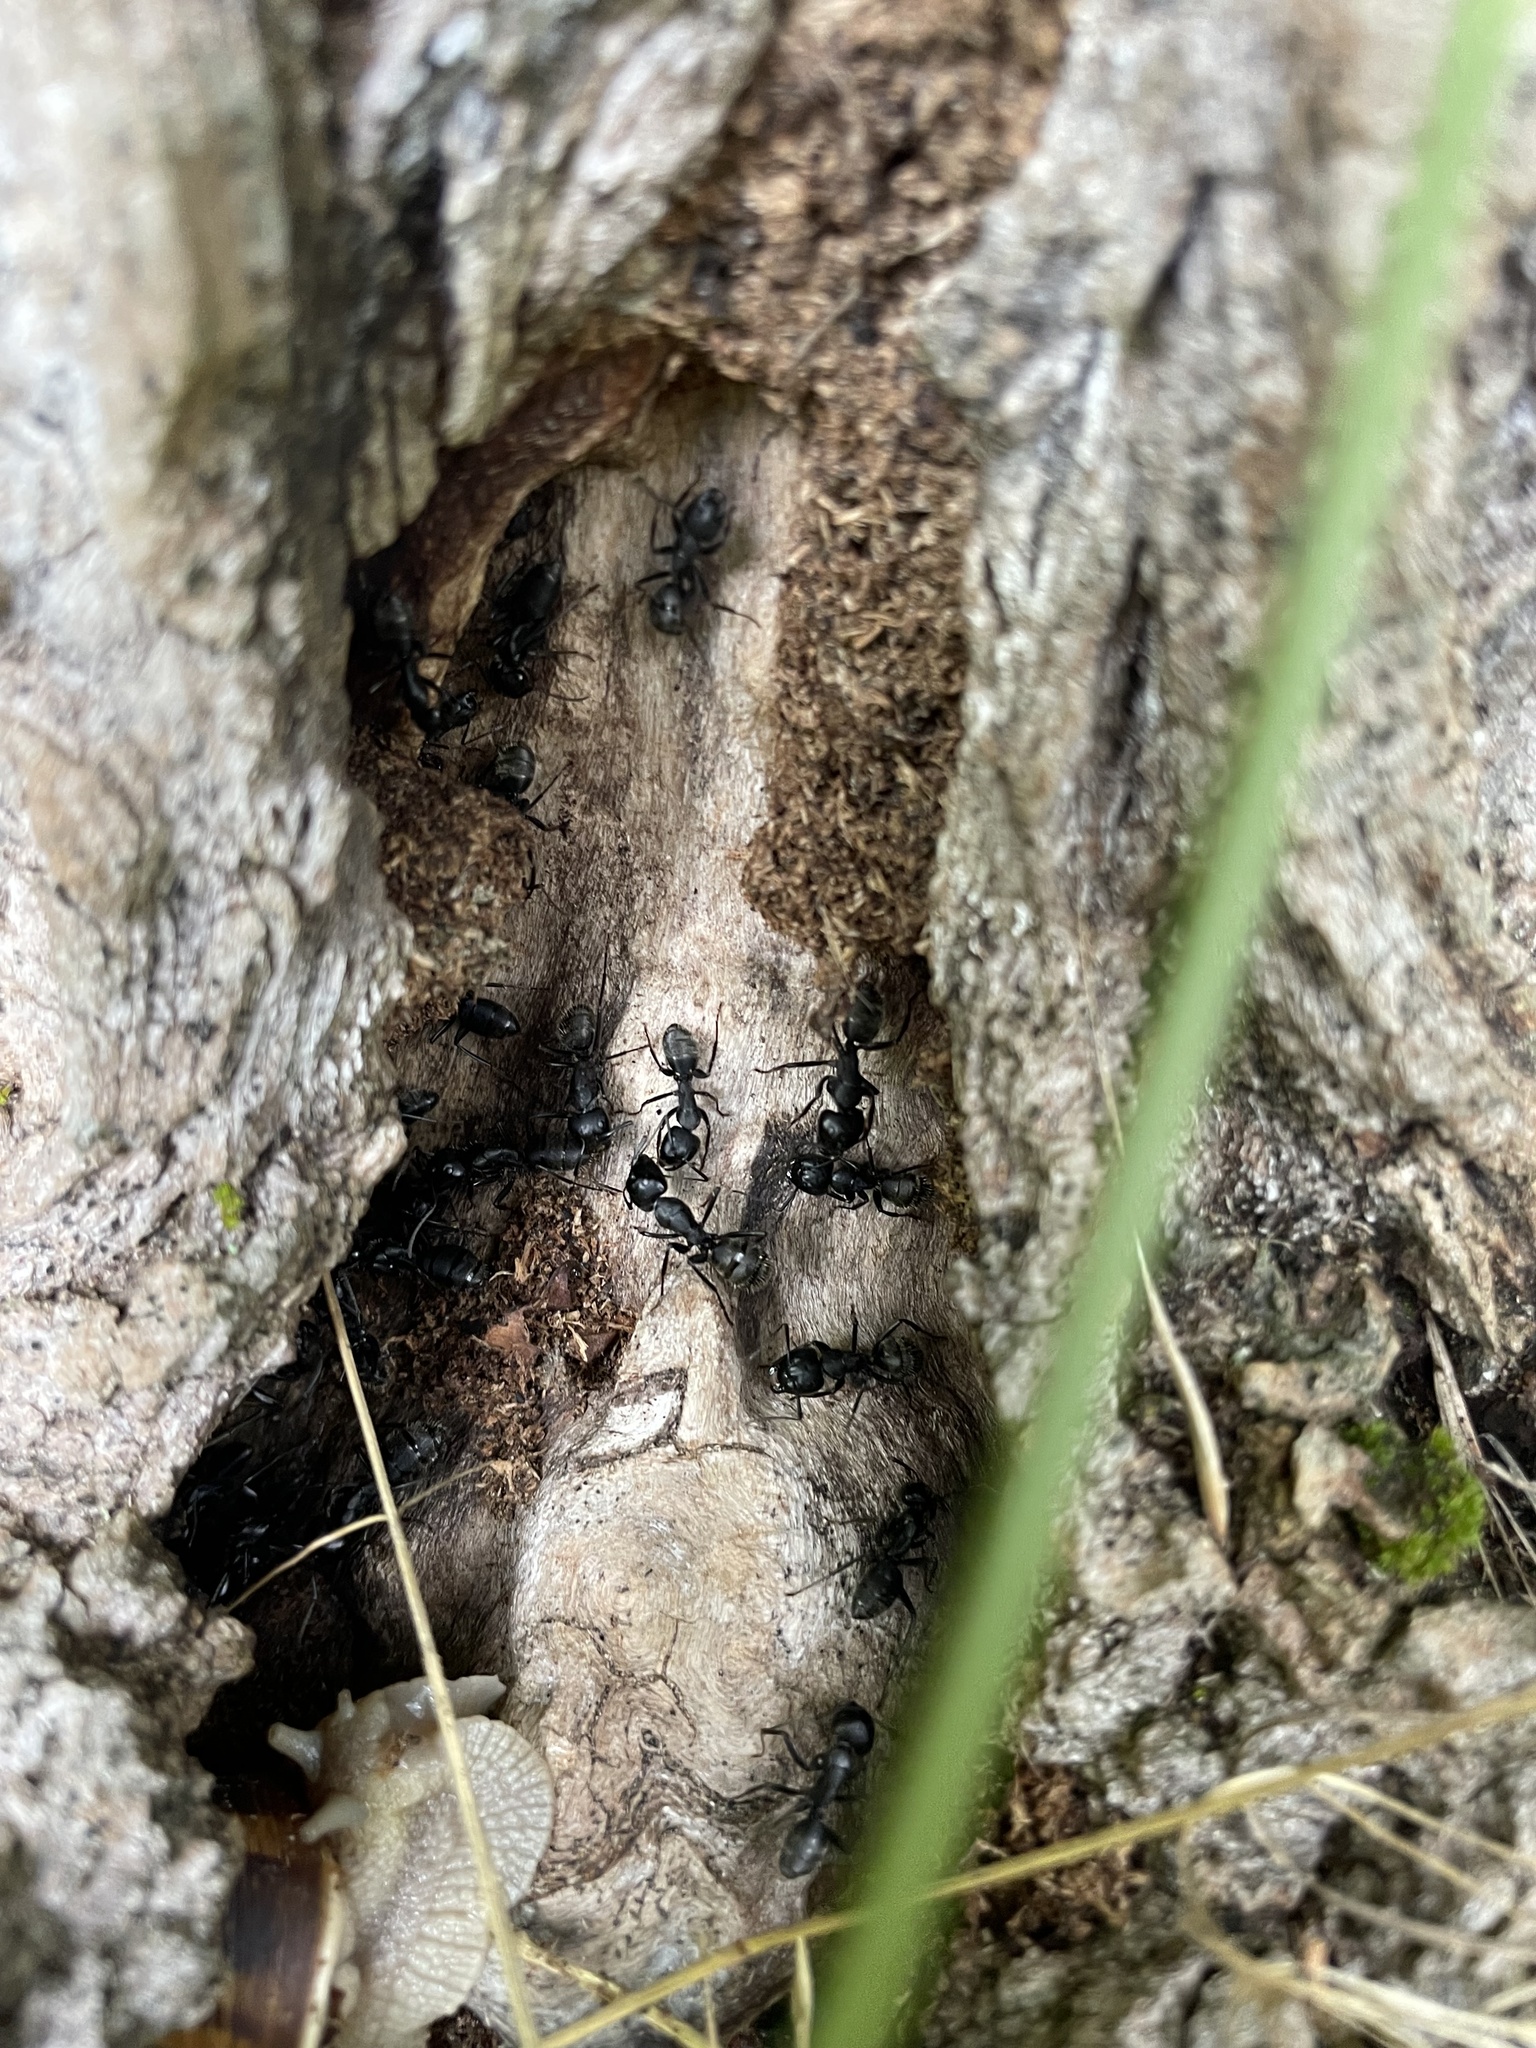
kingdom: Animalia
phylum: Arthropoda
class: Insecta
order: Hymenoptera
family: Formicidae
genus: Camponotus
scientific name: Camponotus vagus
